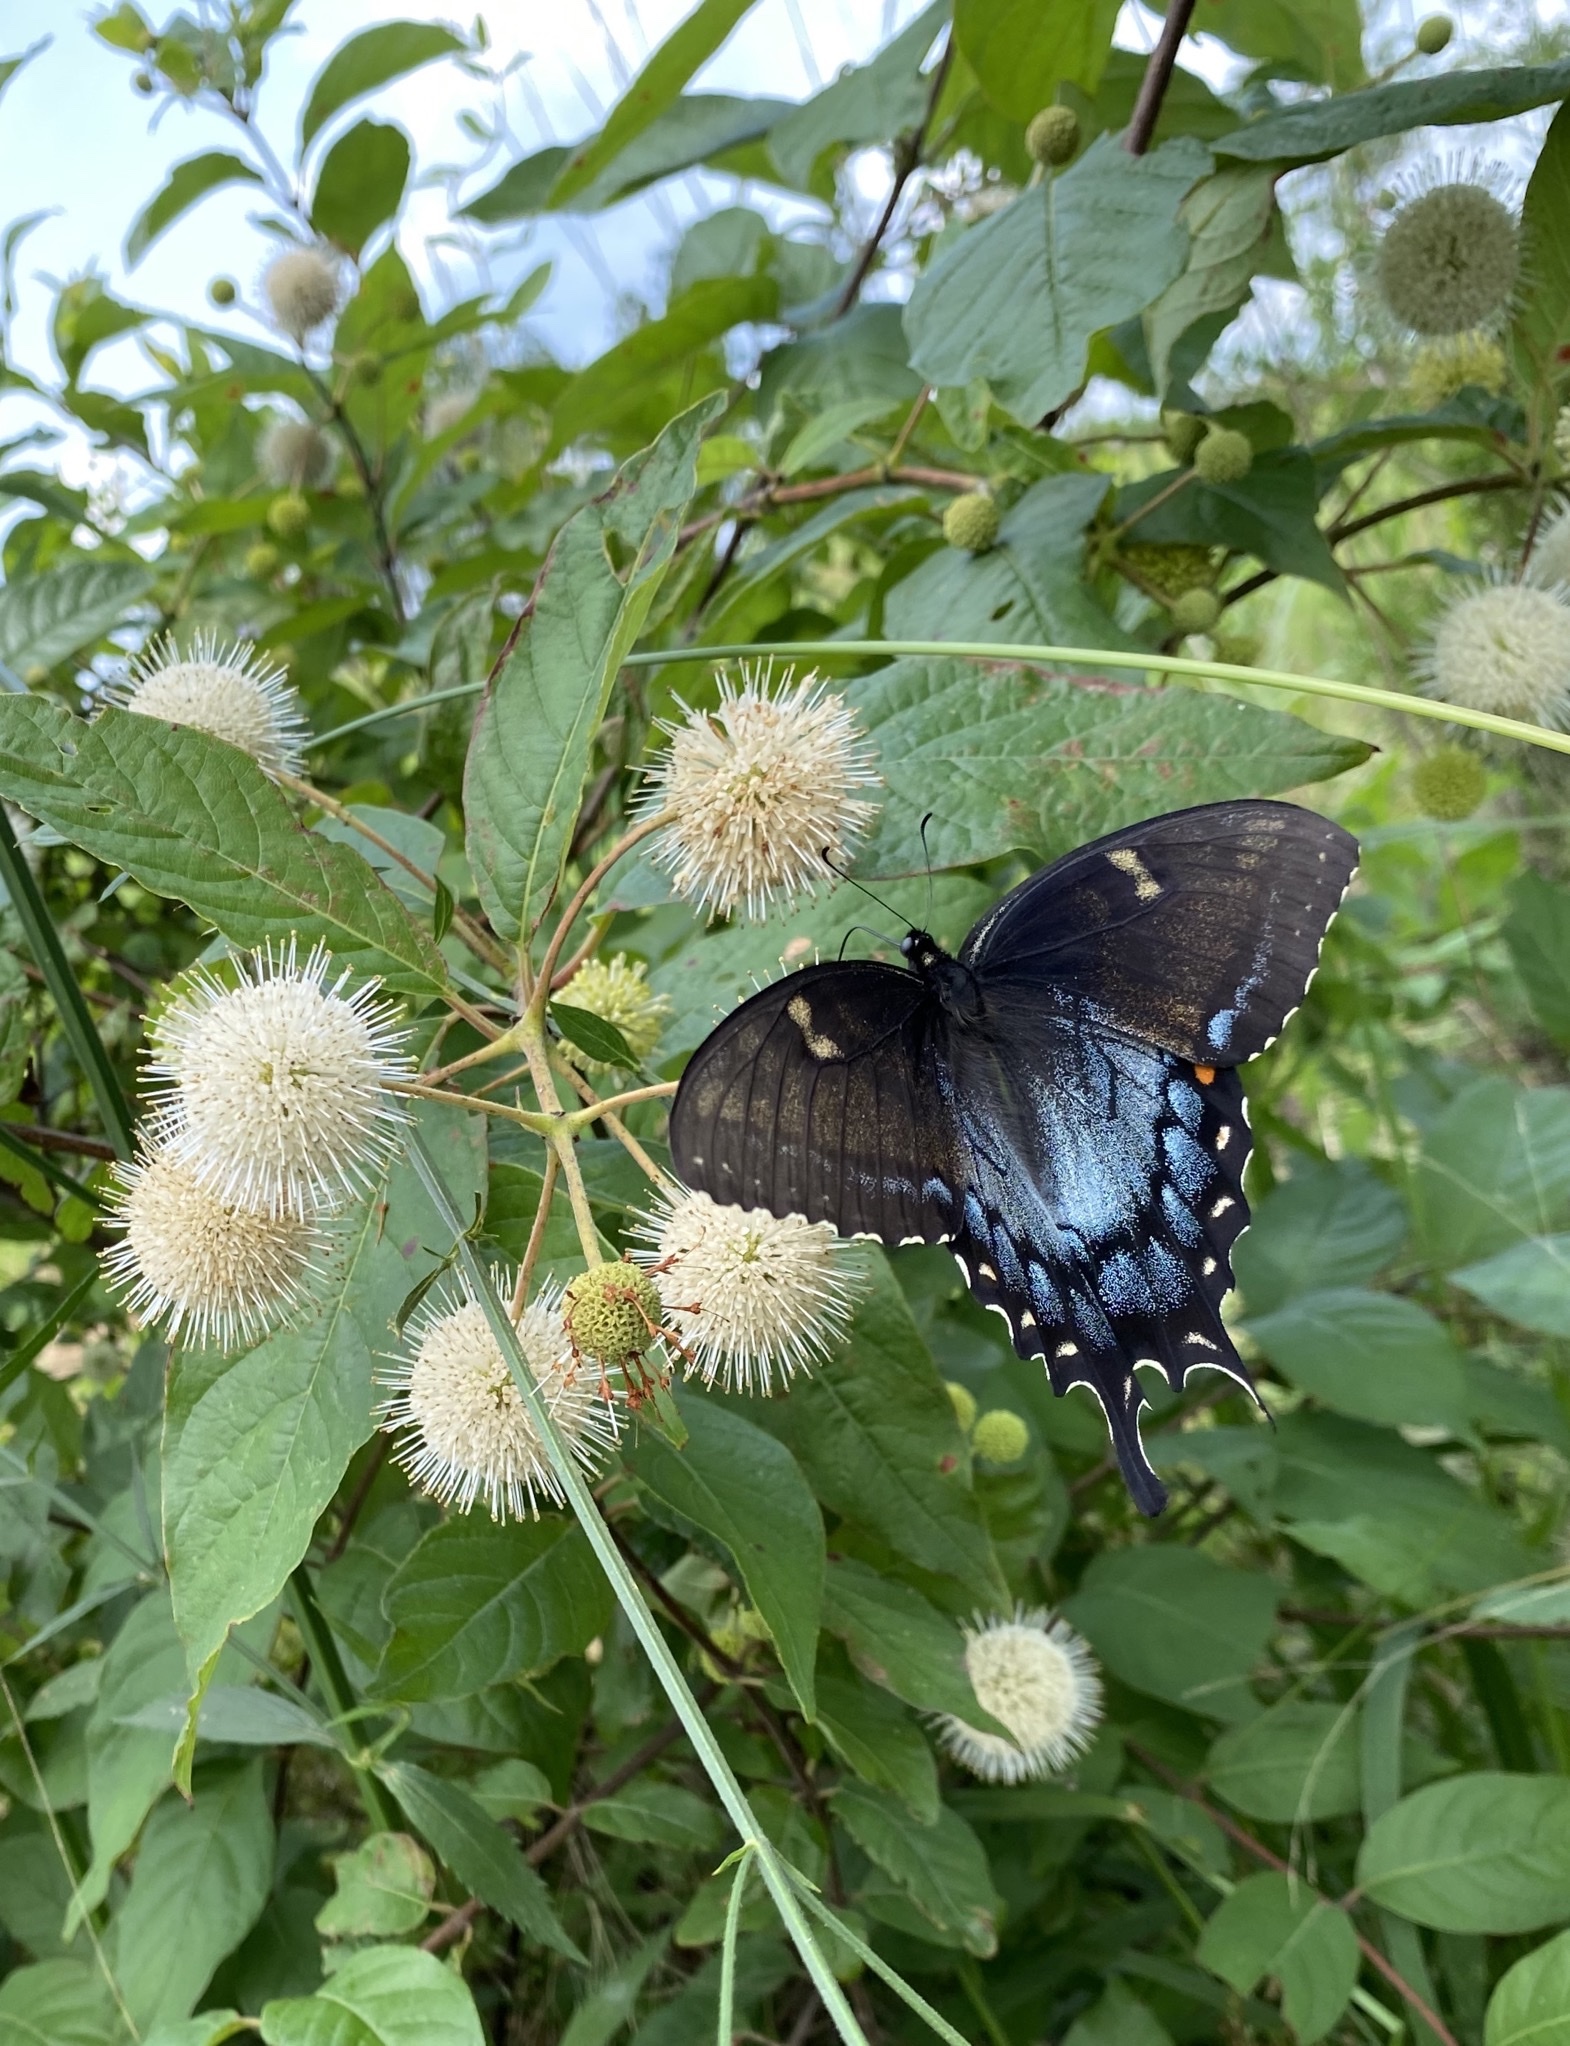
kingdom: Animalia
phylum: Arthropoda
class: Insecta
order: Lepidoptera
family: Papilionidae
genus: Papilio
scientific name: Papilio glaucus
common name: Tiger swallowtail
